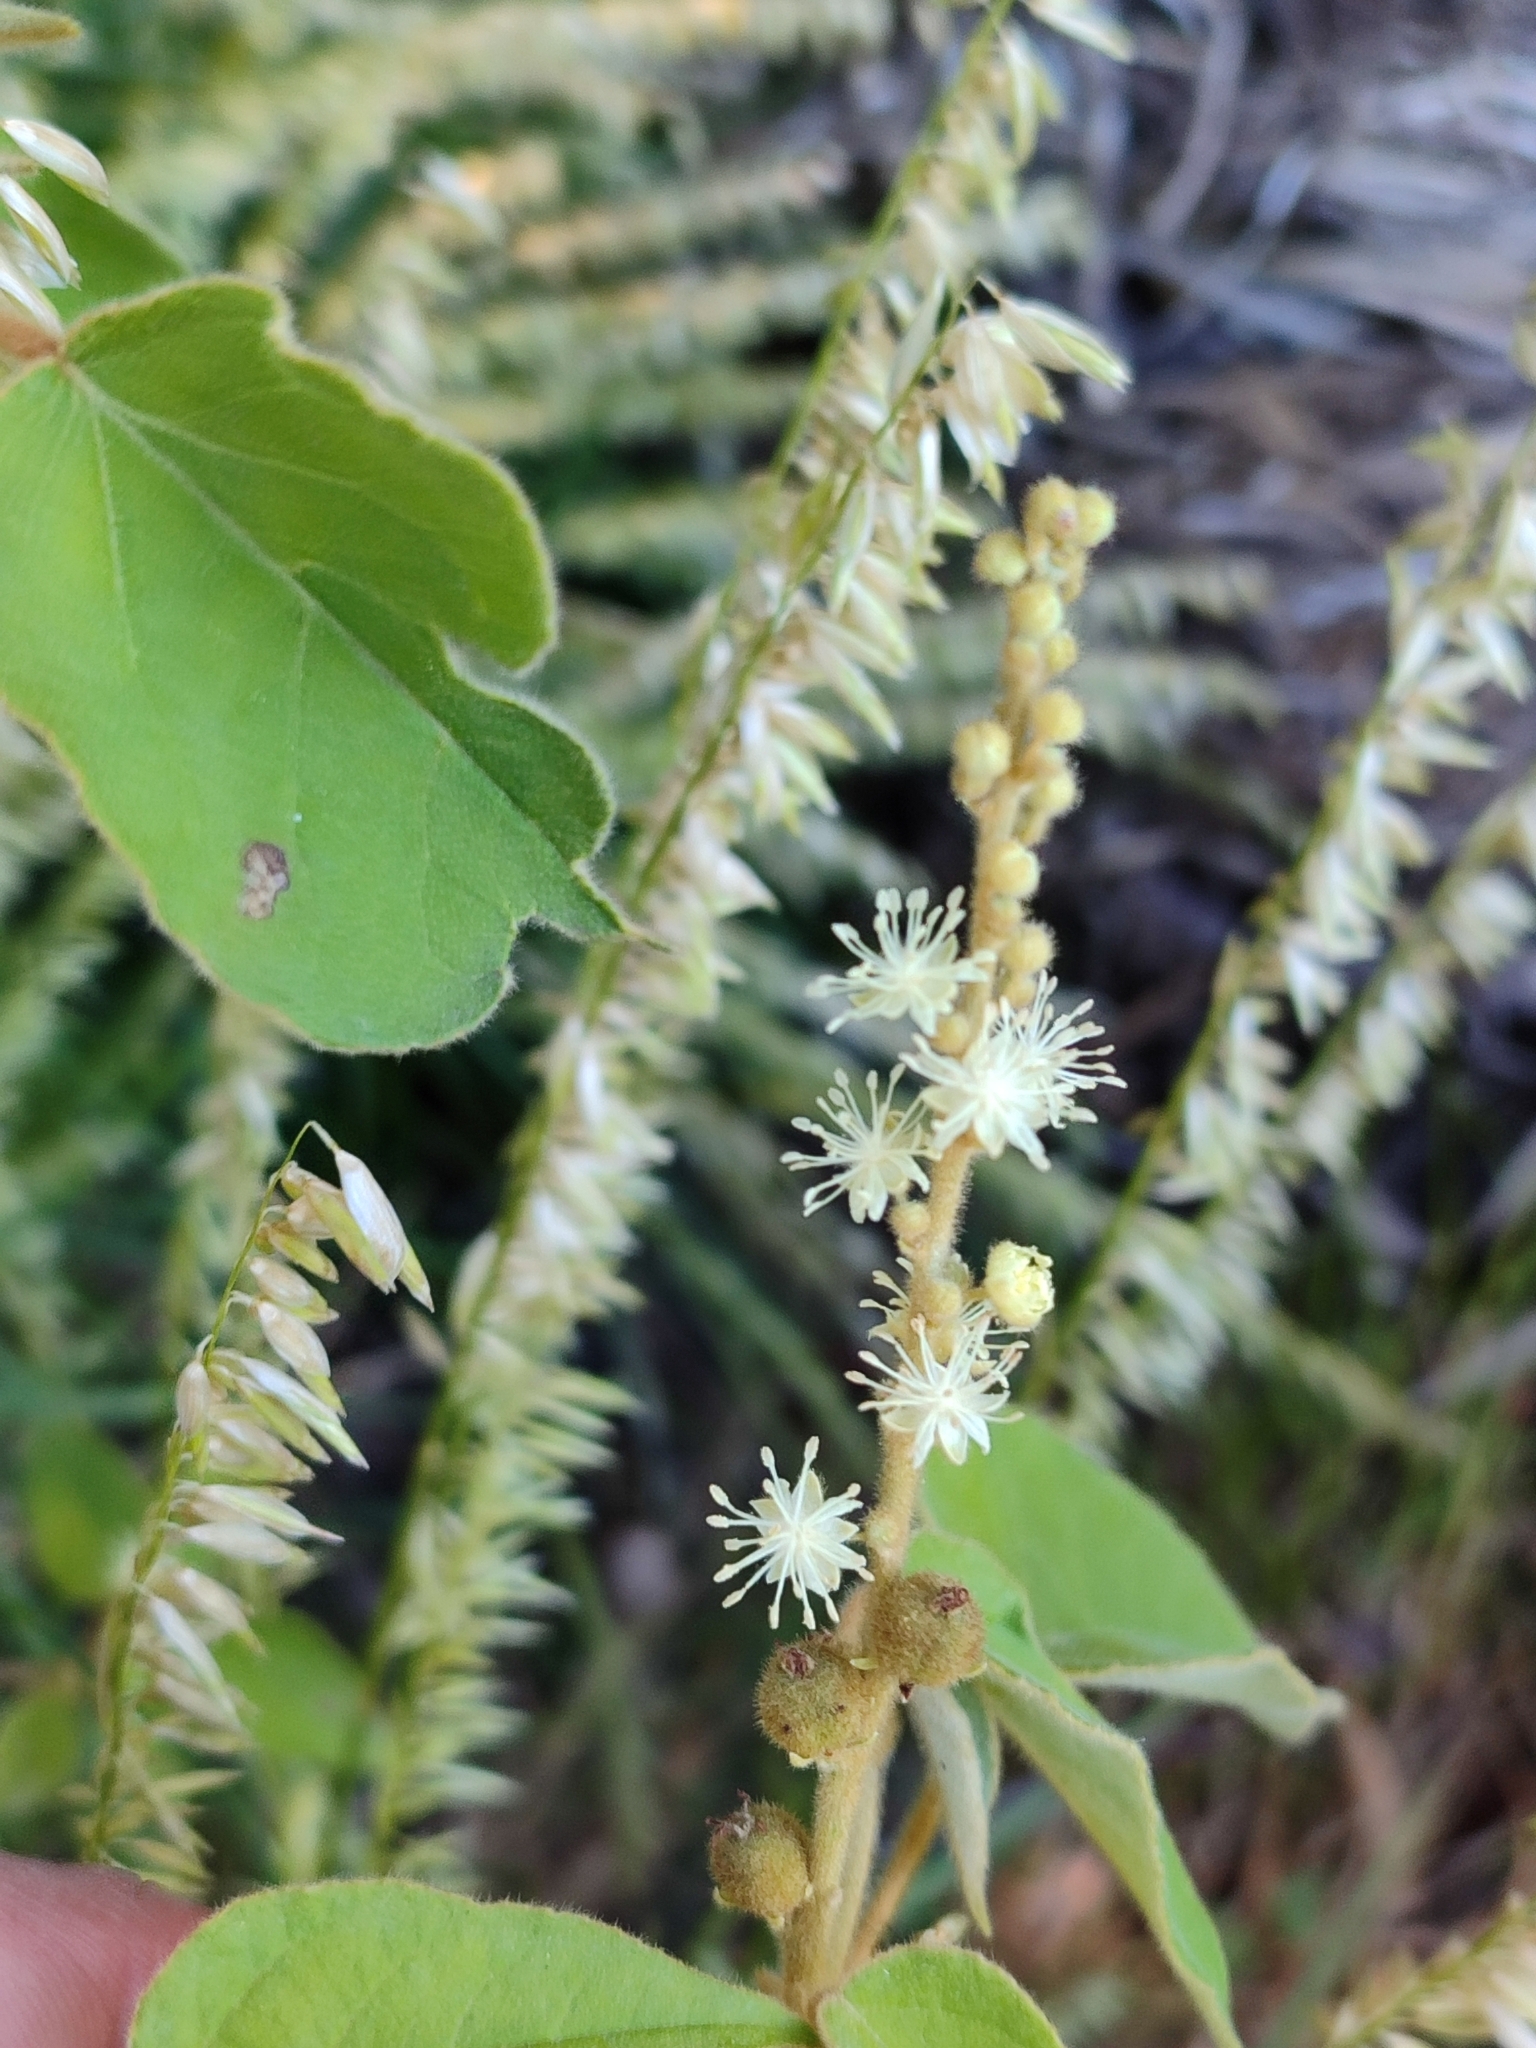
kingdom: Plantae
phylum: Tracheophyta
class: Magnoliopsida
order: Malpighiales
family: Euphorbiaceae
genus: Croton
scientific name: Croton lachnostachyus
